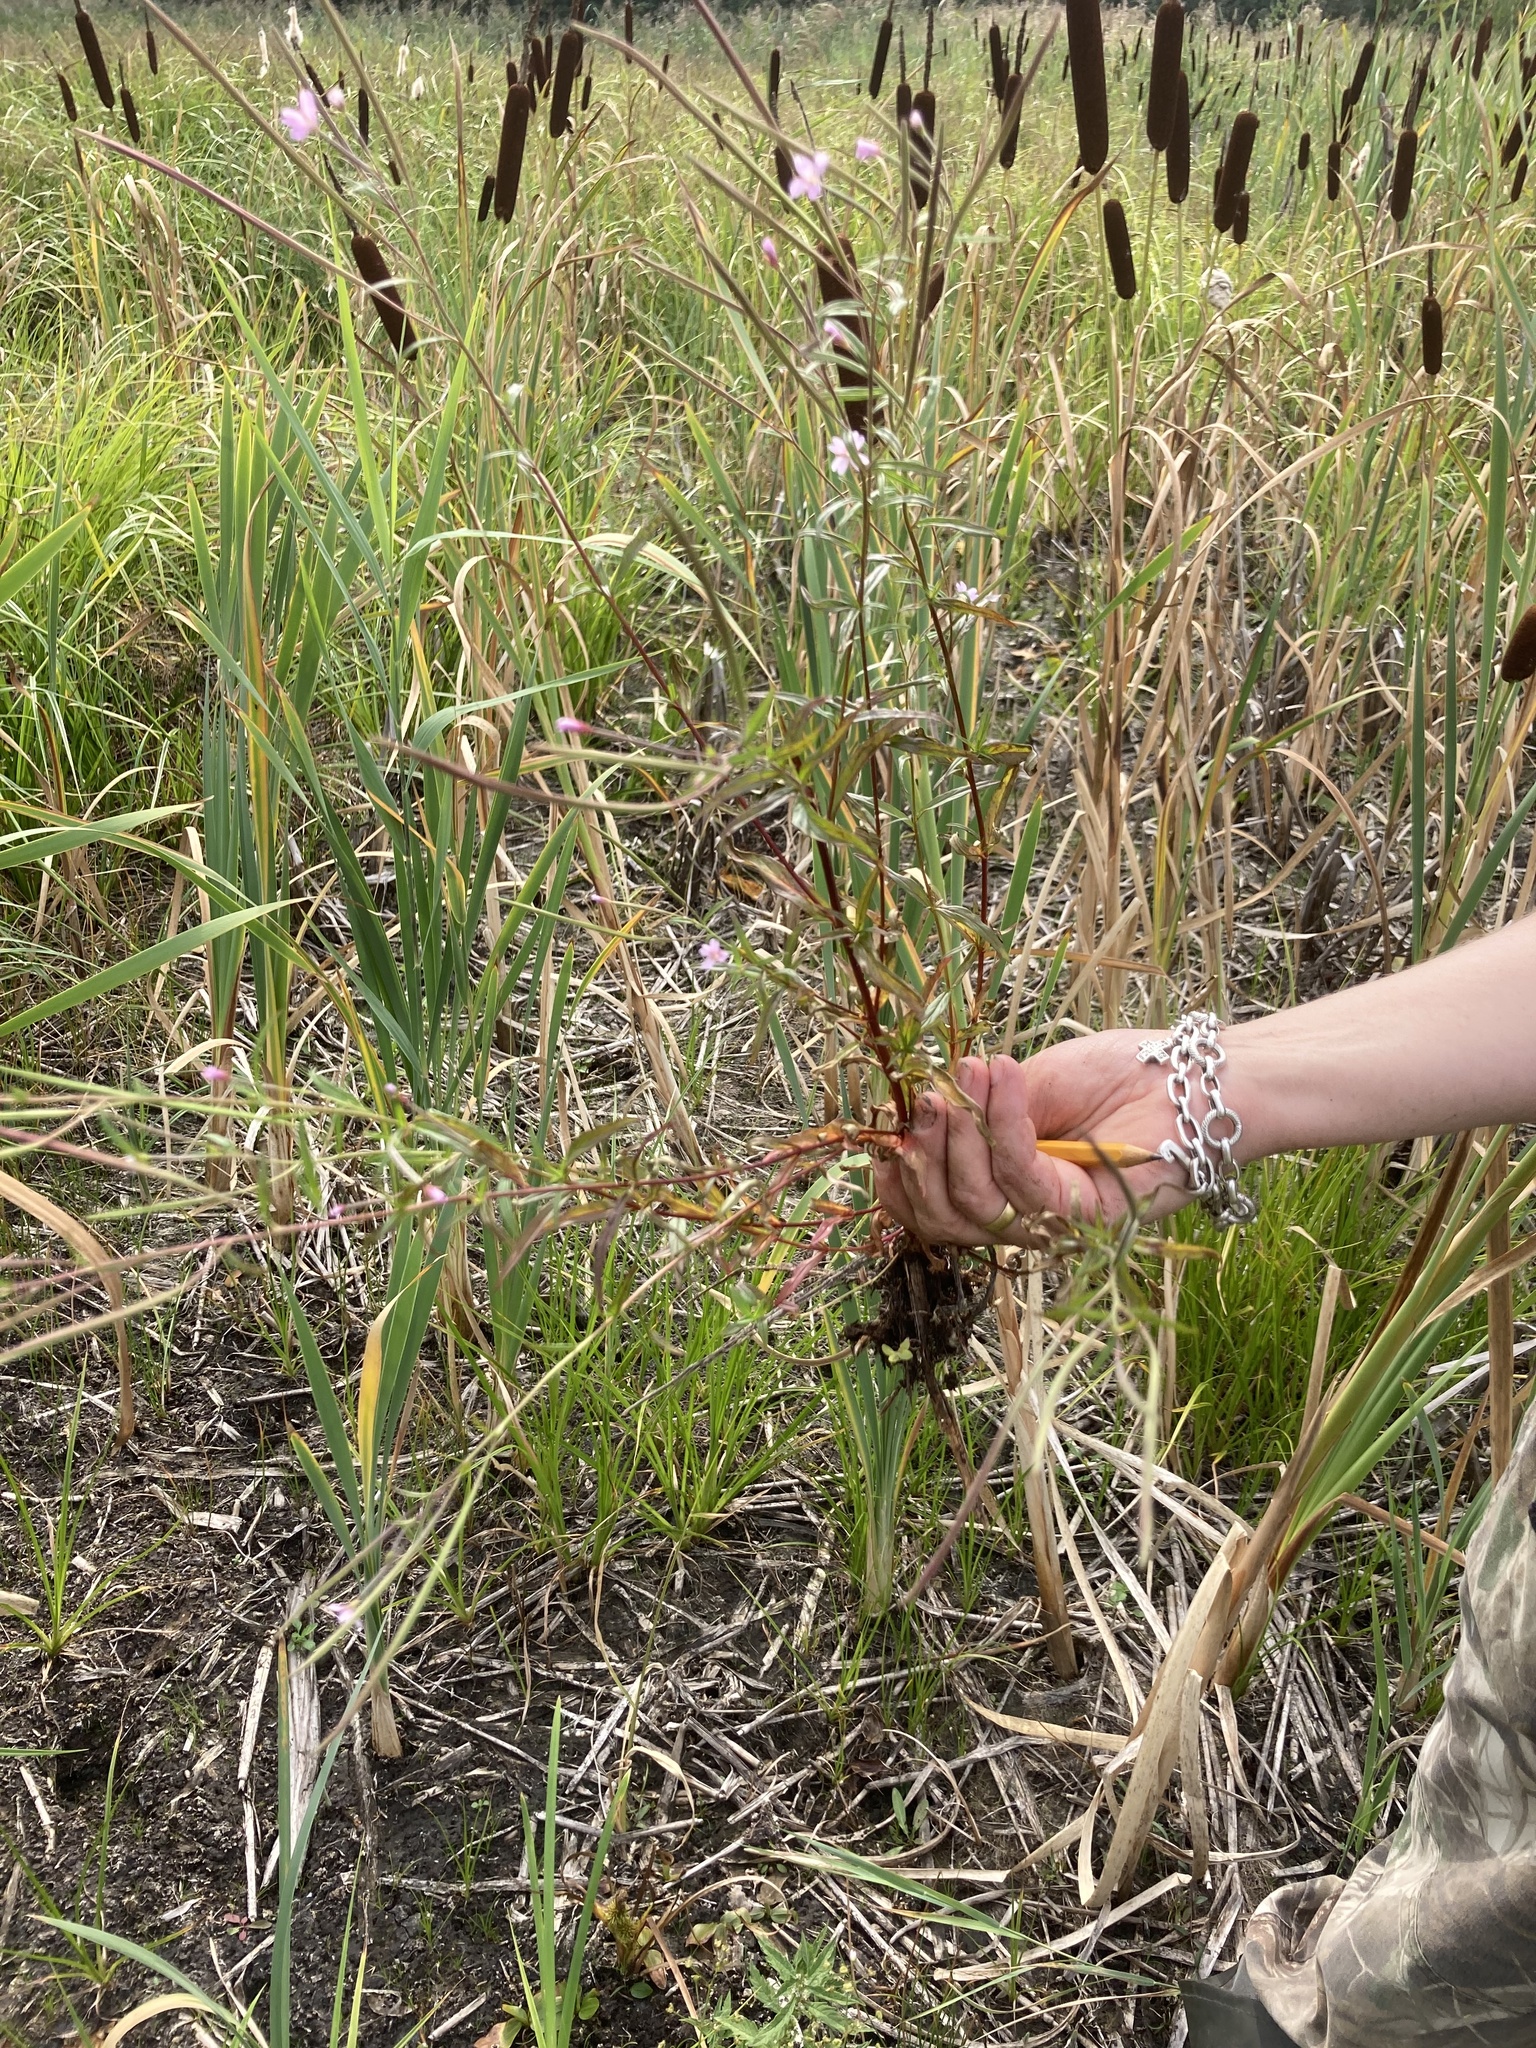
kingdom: Plantae
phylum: Tracheophyta
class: Magnoliopsida
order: Myrtales
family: Onagraceae
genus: Epilobium
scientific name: Epilobium palustre
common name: Marsh willowherb
